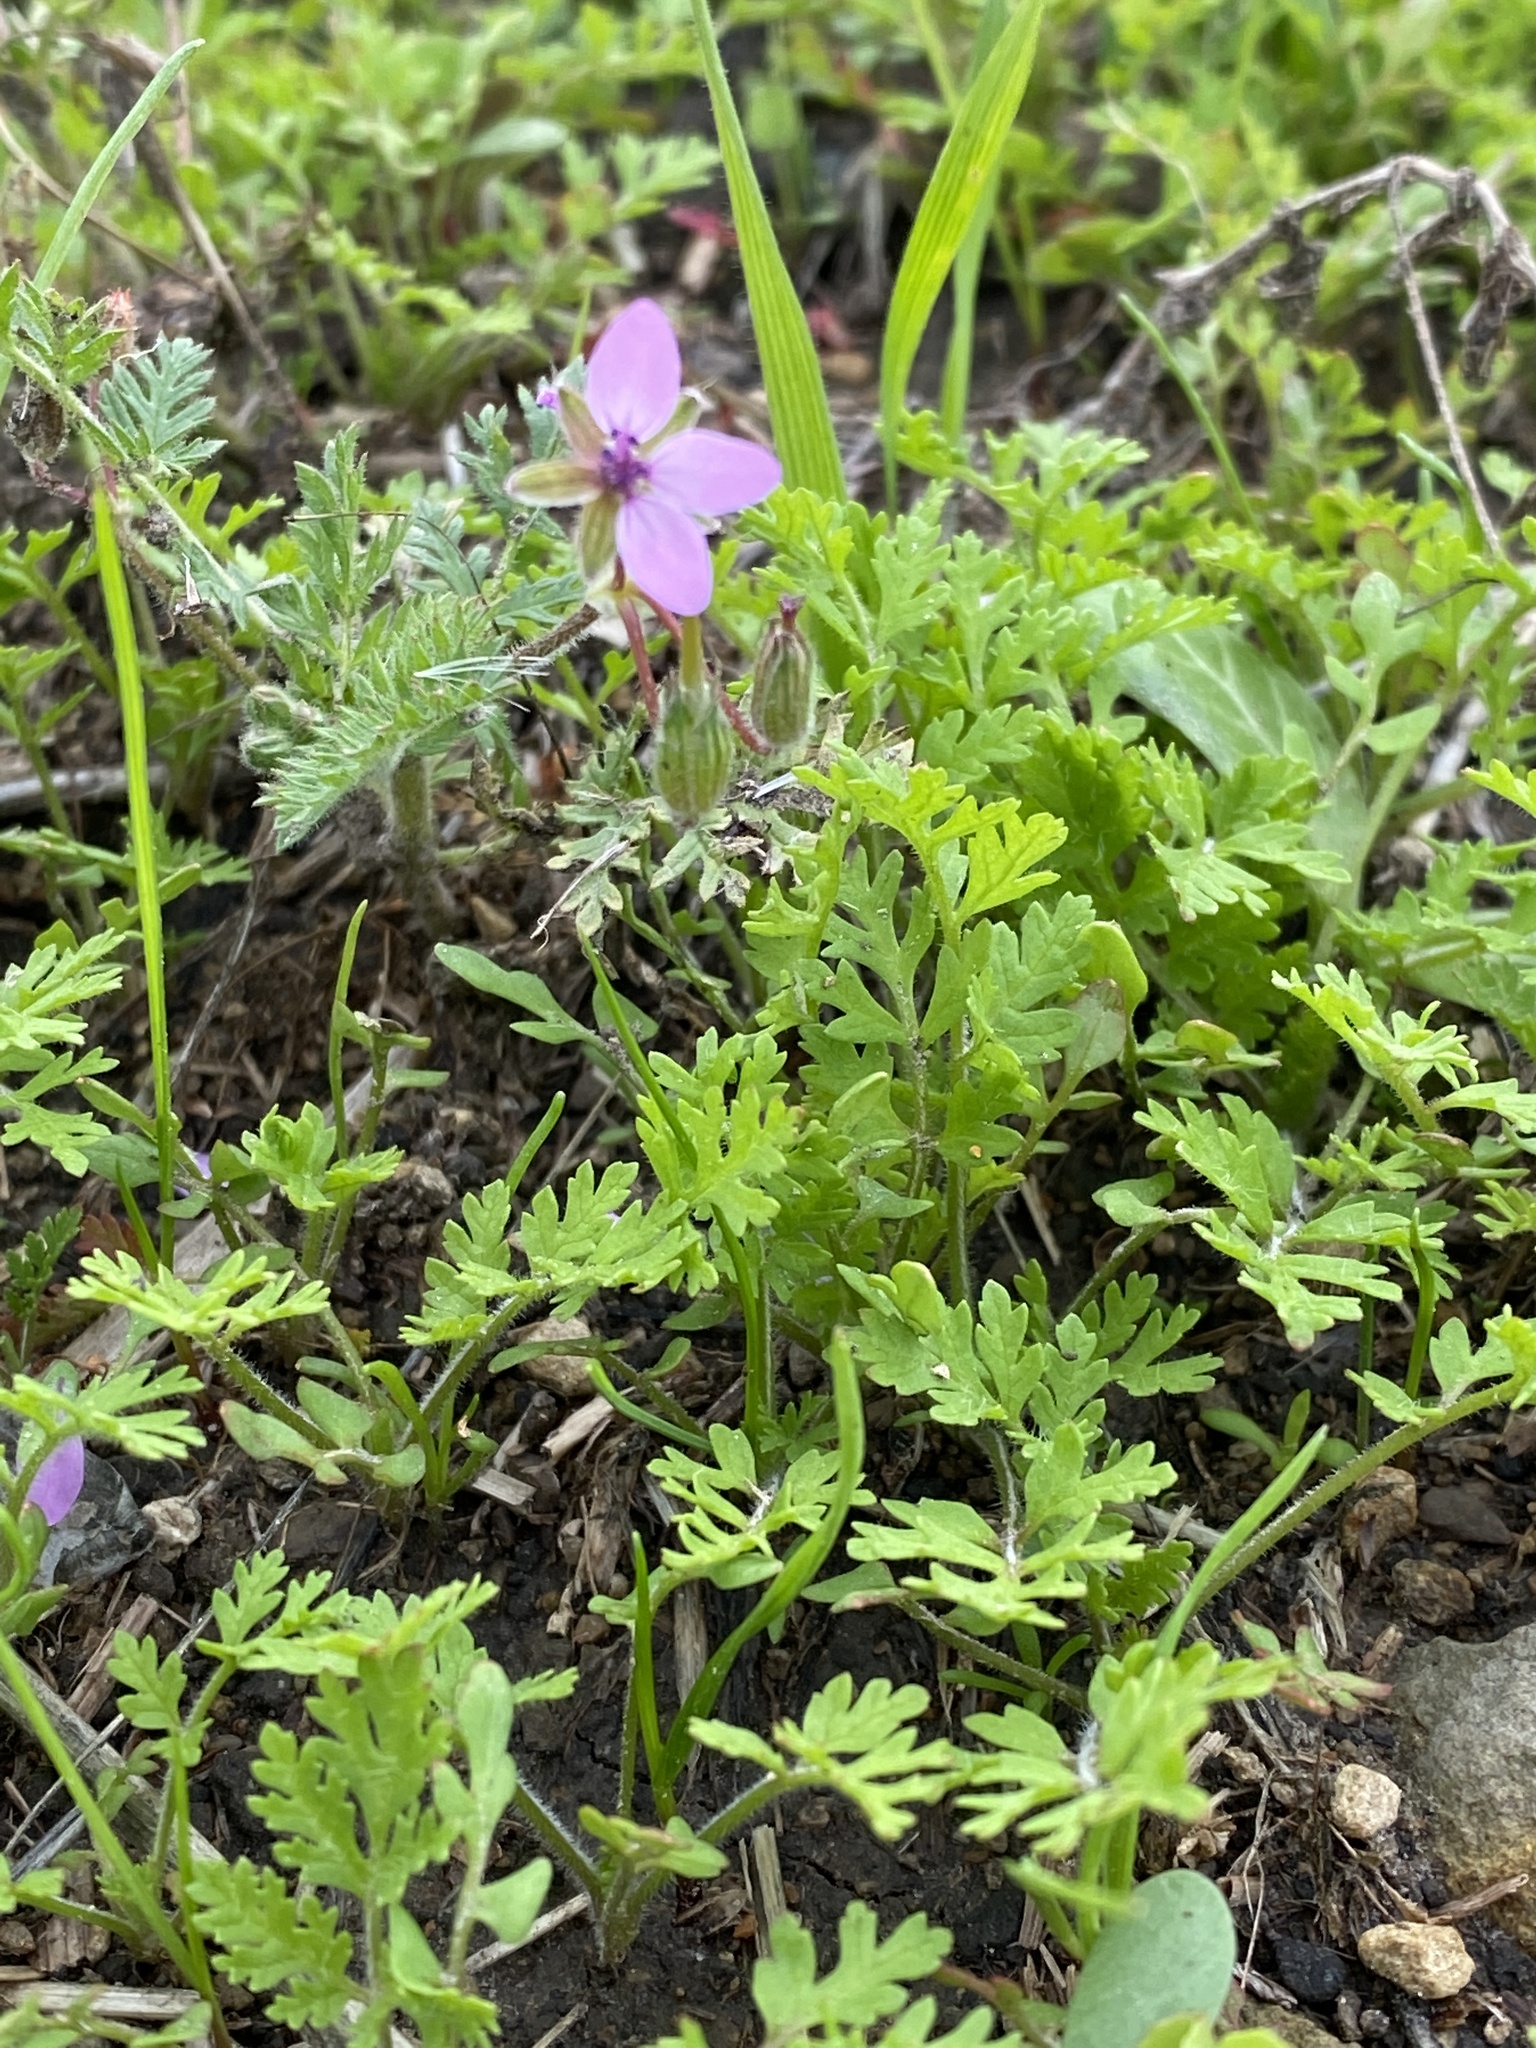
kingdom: Plantae
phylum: Tracheophyta
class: Magnoliopsida
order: Geraniales
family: Geraniaceae
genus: Erodium
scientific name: Erodium cicutarium
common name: Common stork's-bill
